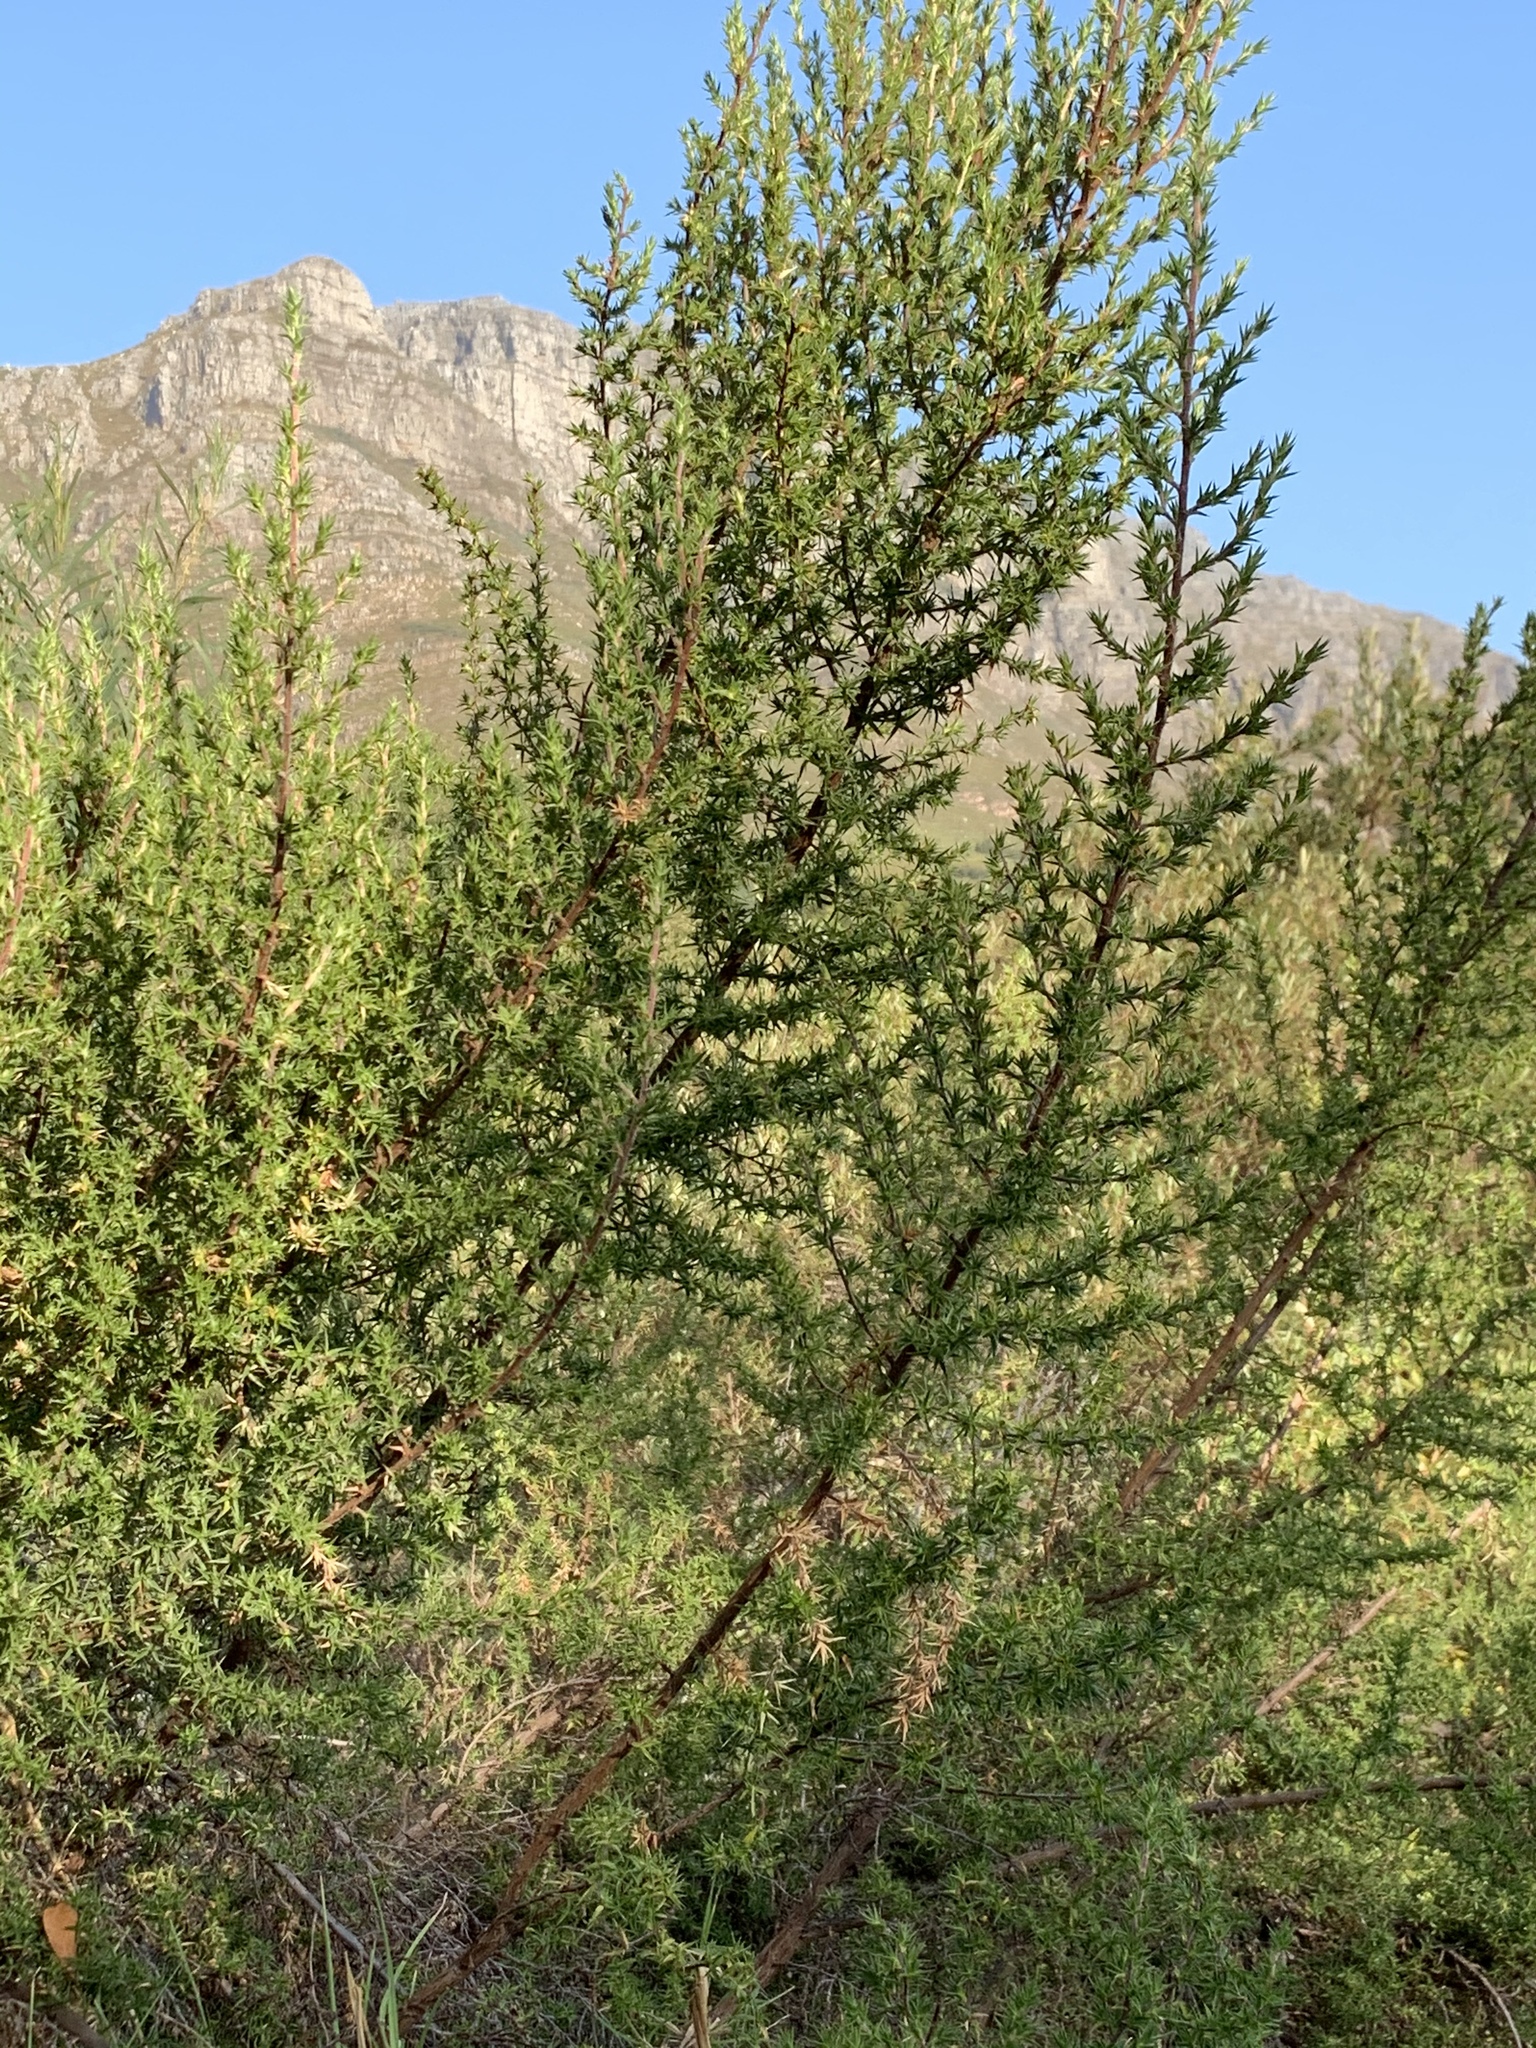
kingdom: Plantae
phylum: Tracheophyta
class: Magnoliopsida
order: Rosales
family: Rosaceae
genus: Cliffortia
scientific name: Cliffortia ruscifolia
